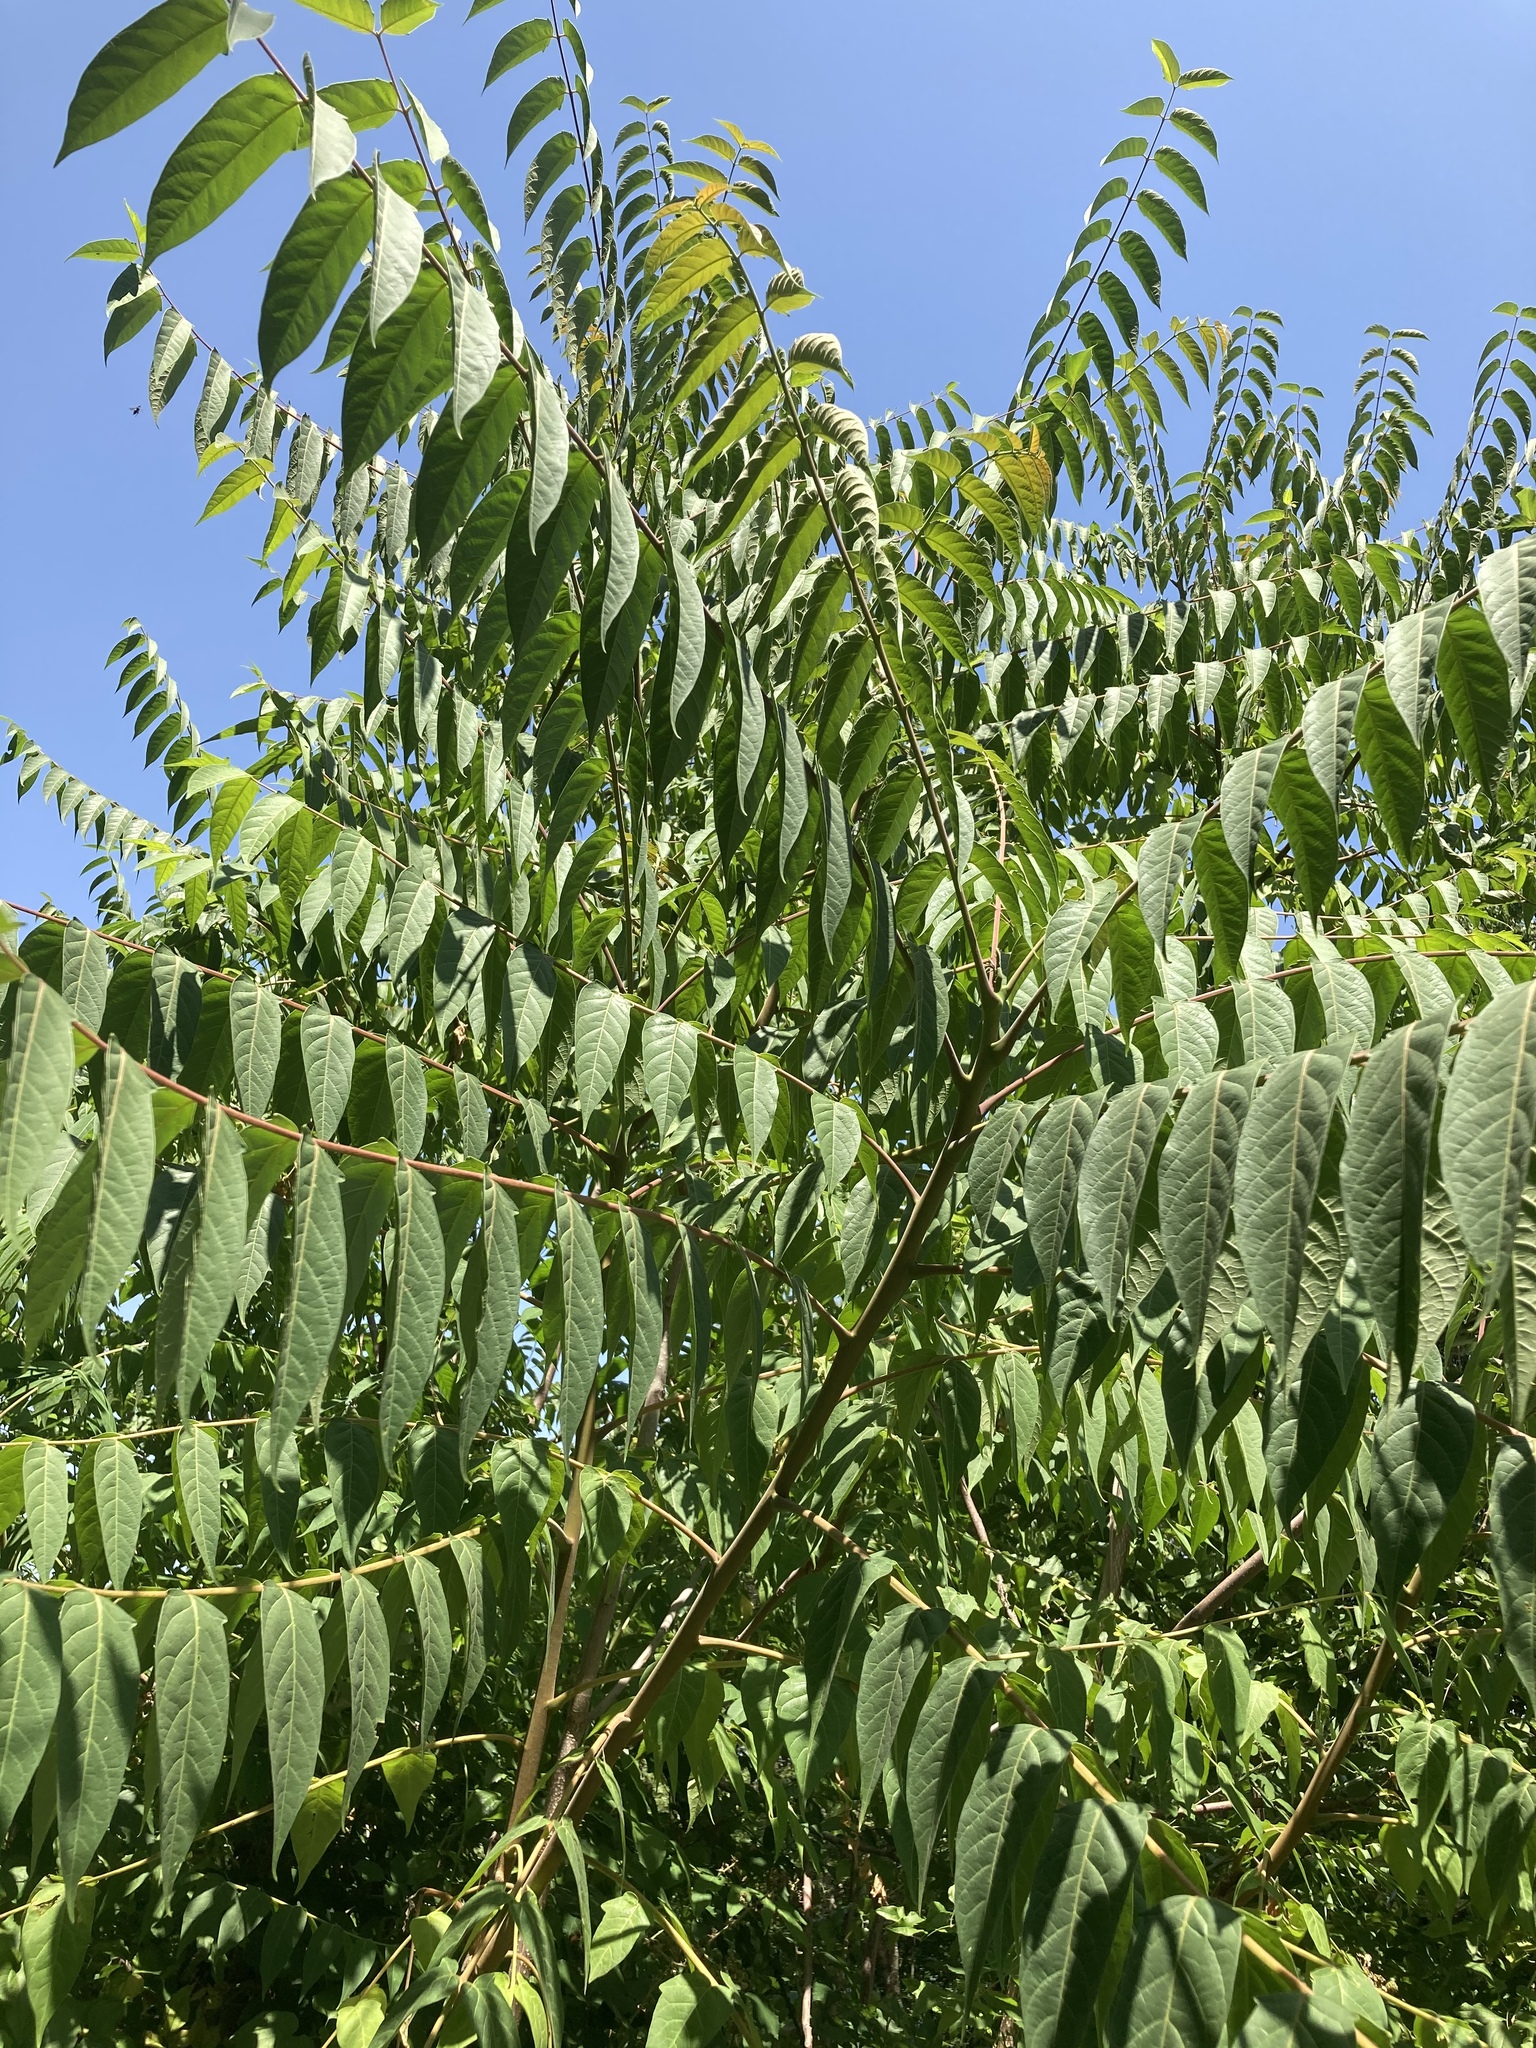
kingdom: Plantae
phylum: Tracheophyta
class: Magnoliopsida
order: Sapindales
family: Simaroubaceae
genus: Ailanthus
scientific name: Ailanthus altissima
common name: Tree-of-heaven
